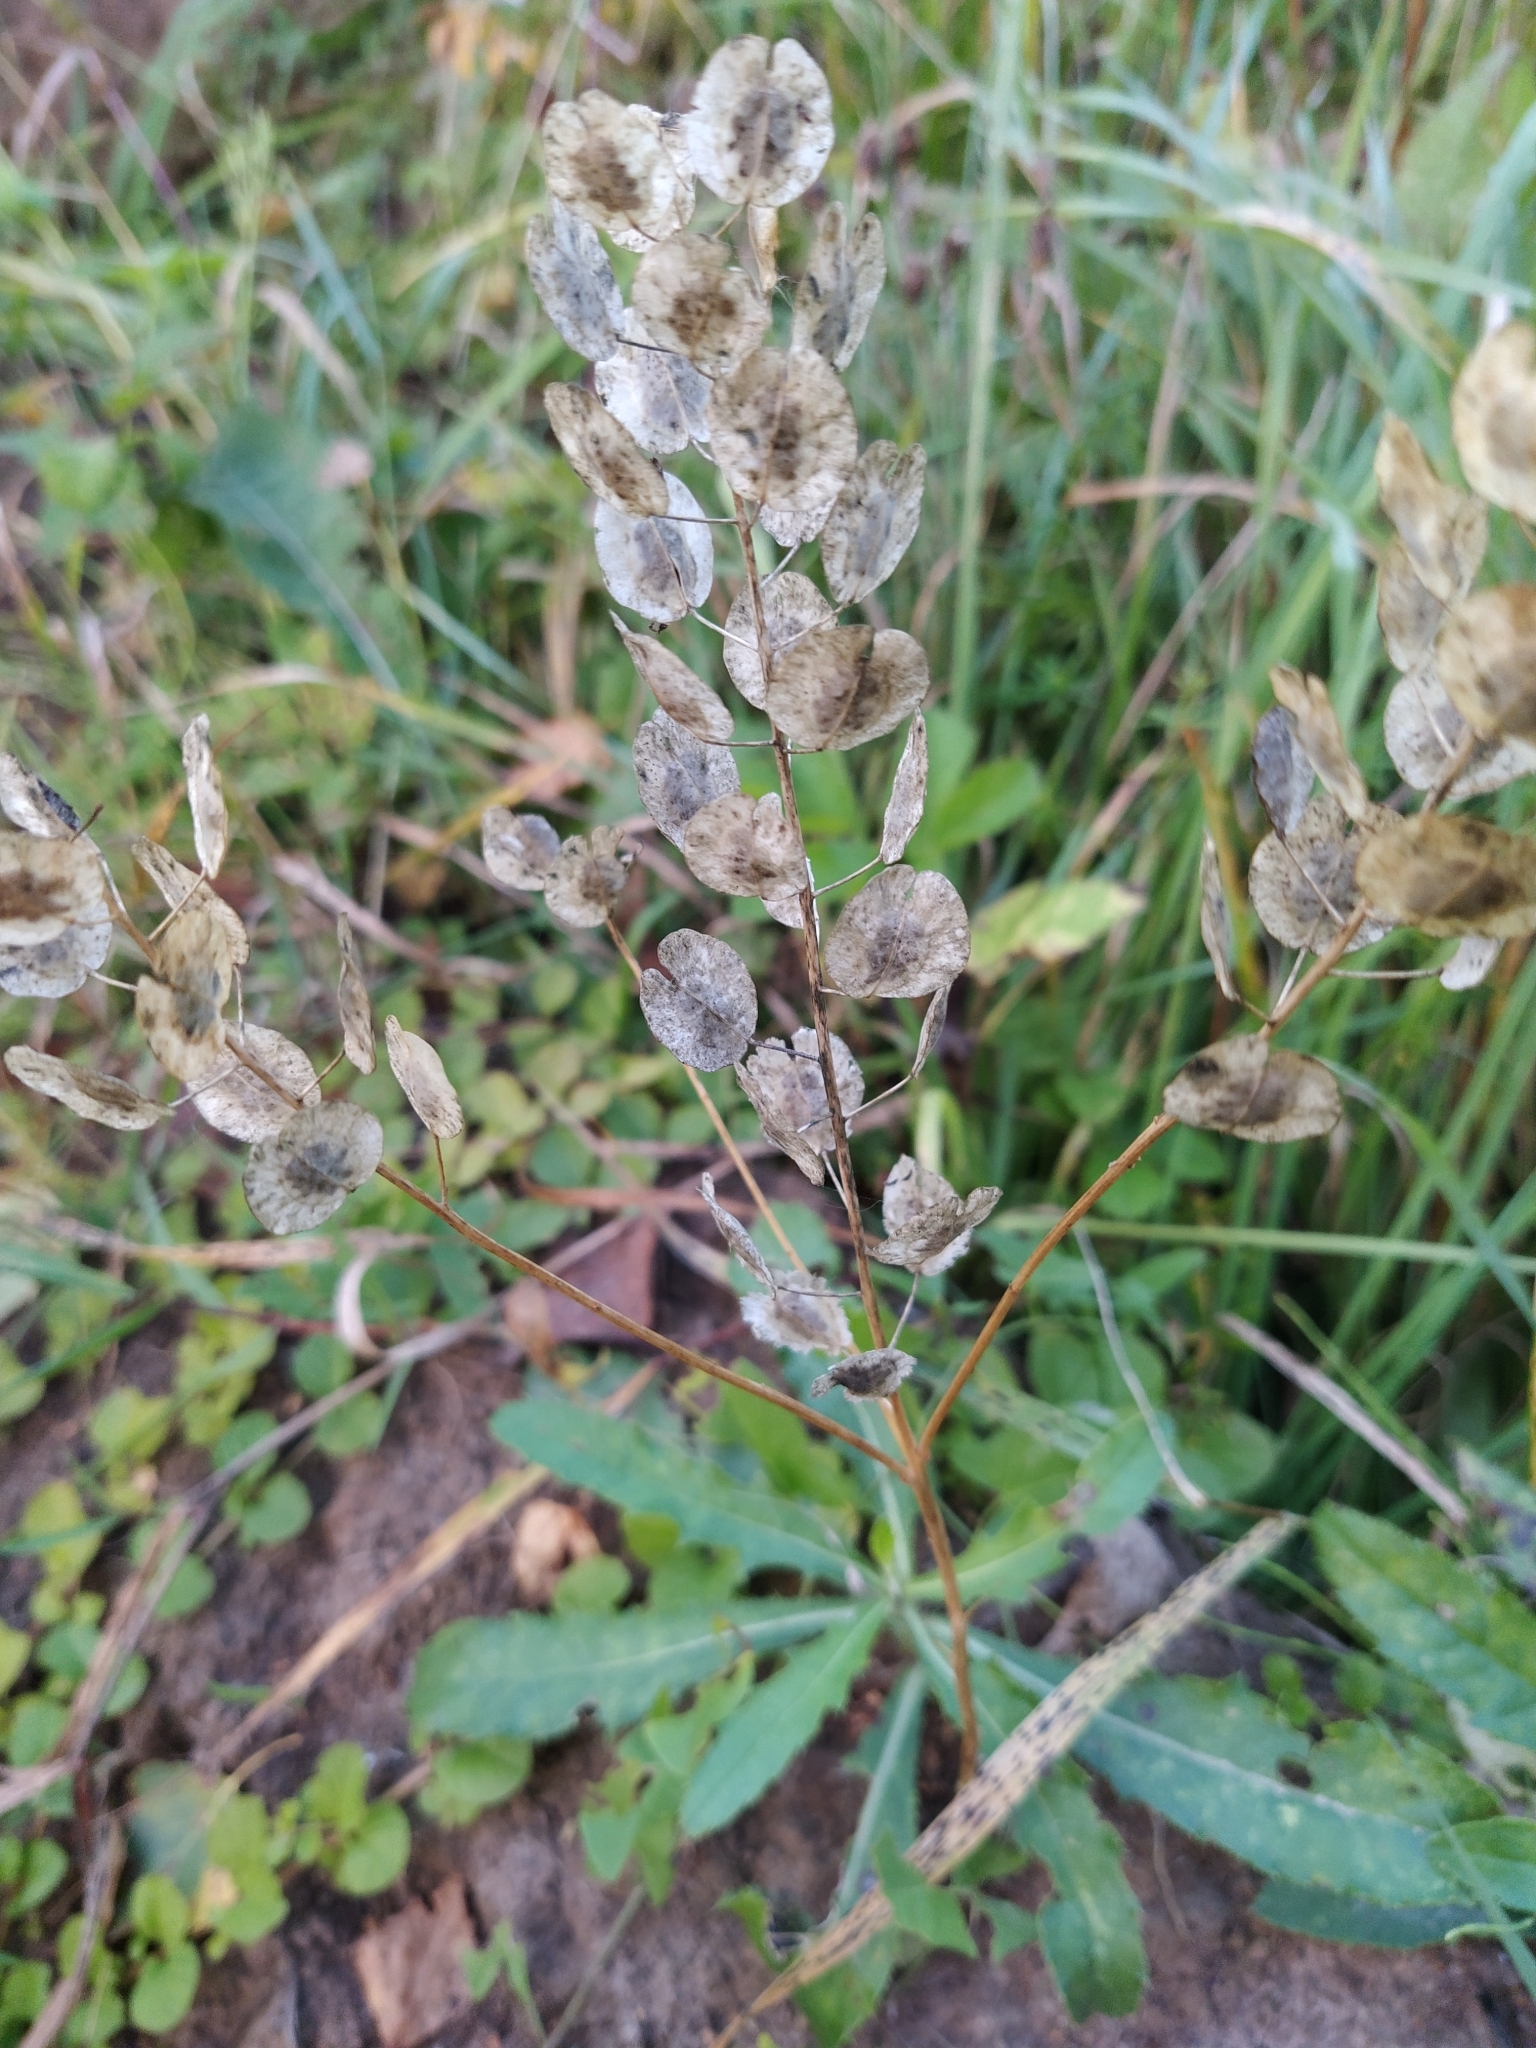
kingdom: Plantae
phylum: Tracheophyta
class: Magnoliopsida
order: Brassicales
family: Brassicaceae
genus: Thlaspi
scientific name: Thlaspi arvense
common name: Field pennycress
